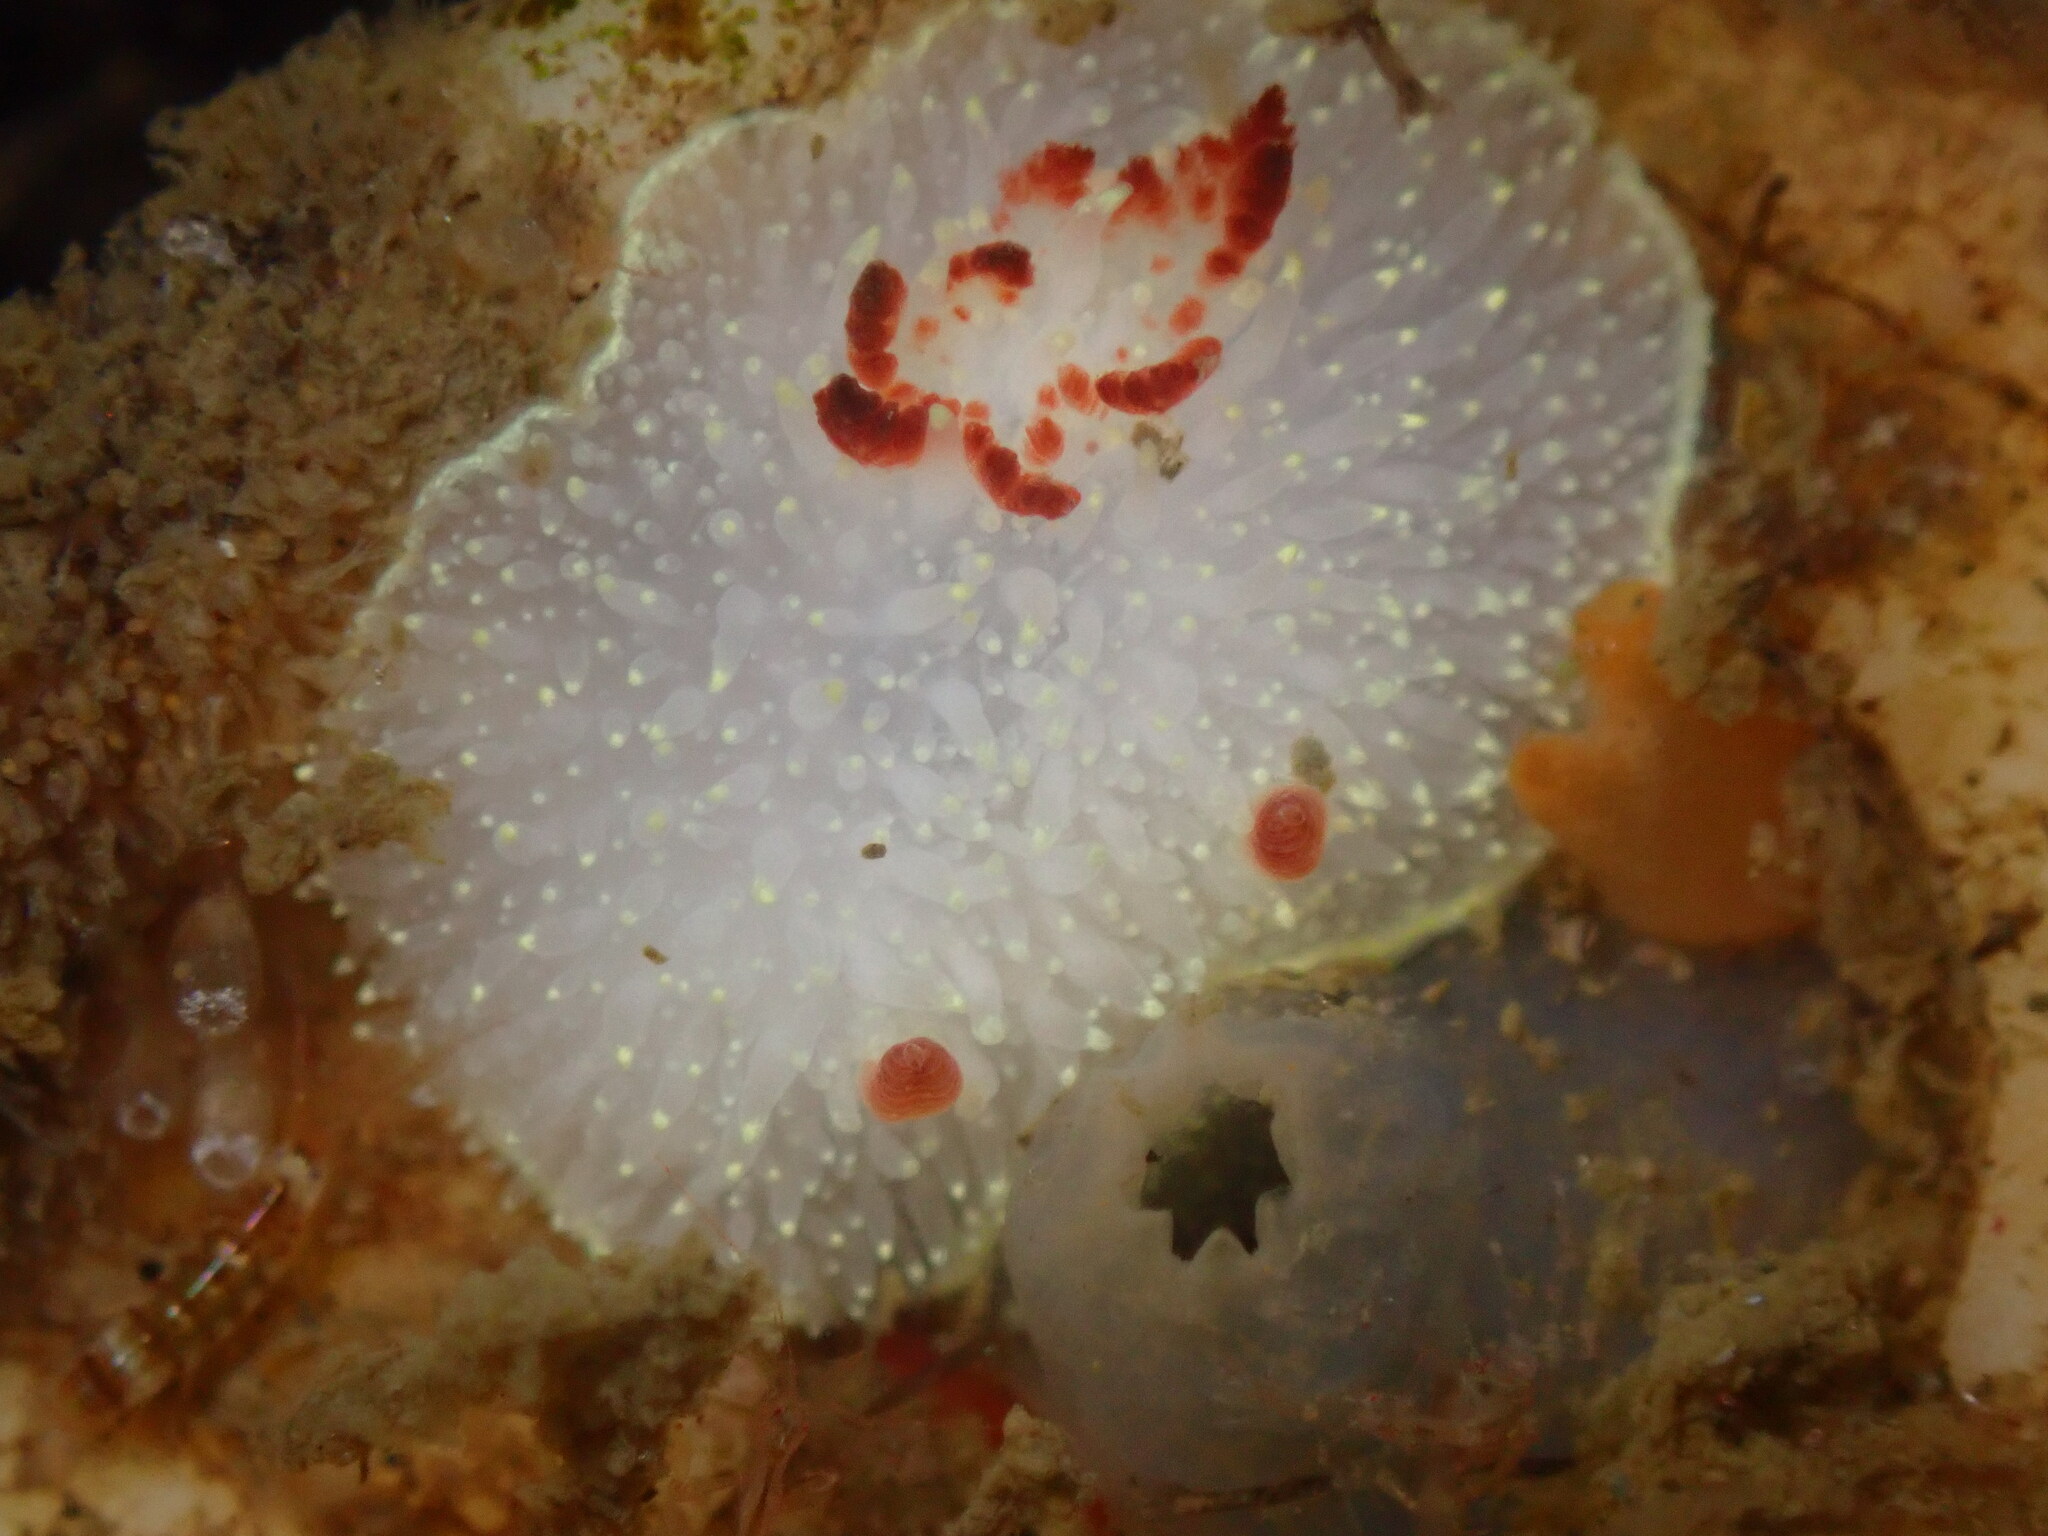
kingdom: Animalia
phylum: Mollusca
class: Gastropoda
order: Nudibranchia
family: Onchidorididae
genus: Acanthodoris
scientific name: Acanthodoris nanaimoensis
